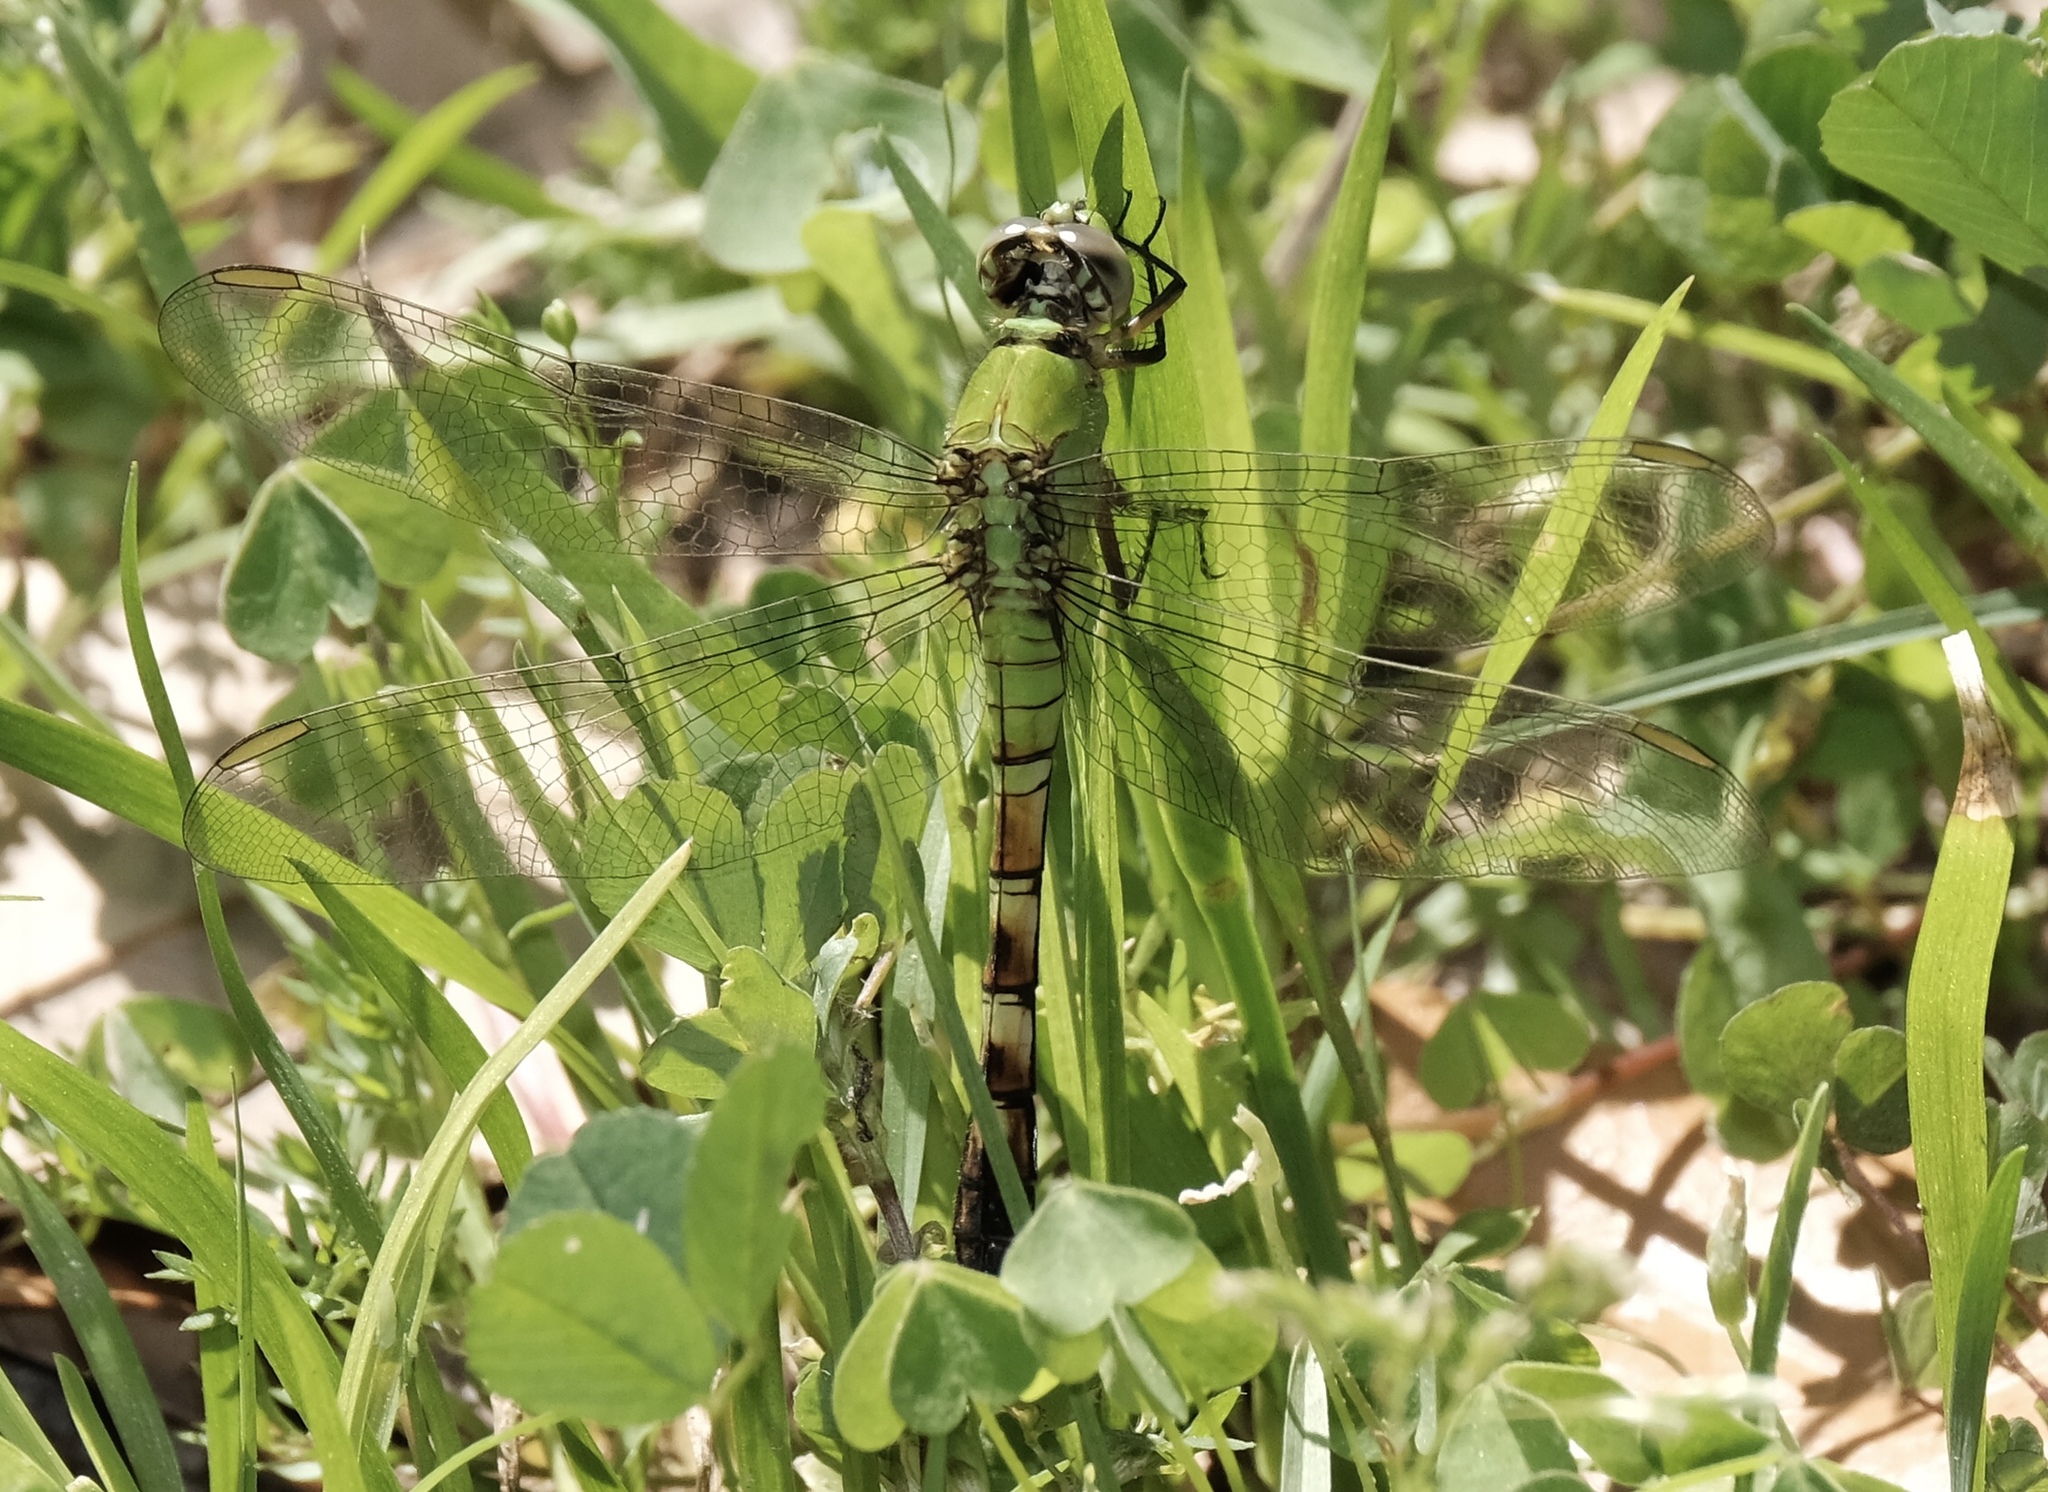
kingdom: Animalia
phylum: Arthropoda
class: Insecta
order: Odonata
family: Libellulidae
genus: Erythemis
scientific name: Erythemis simplicicollis
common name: Eastern pondhawk
